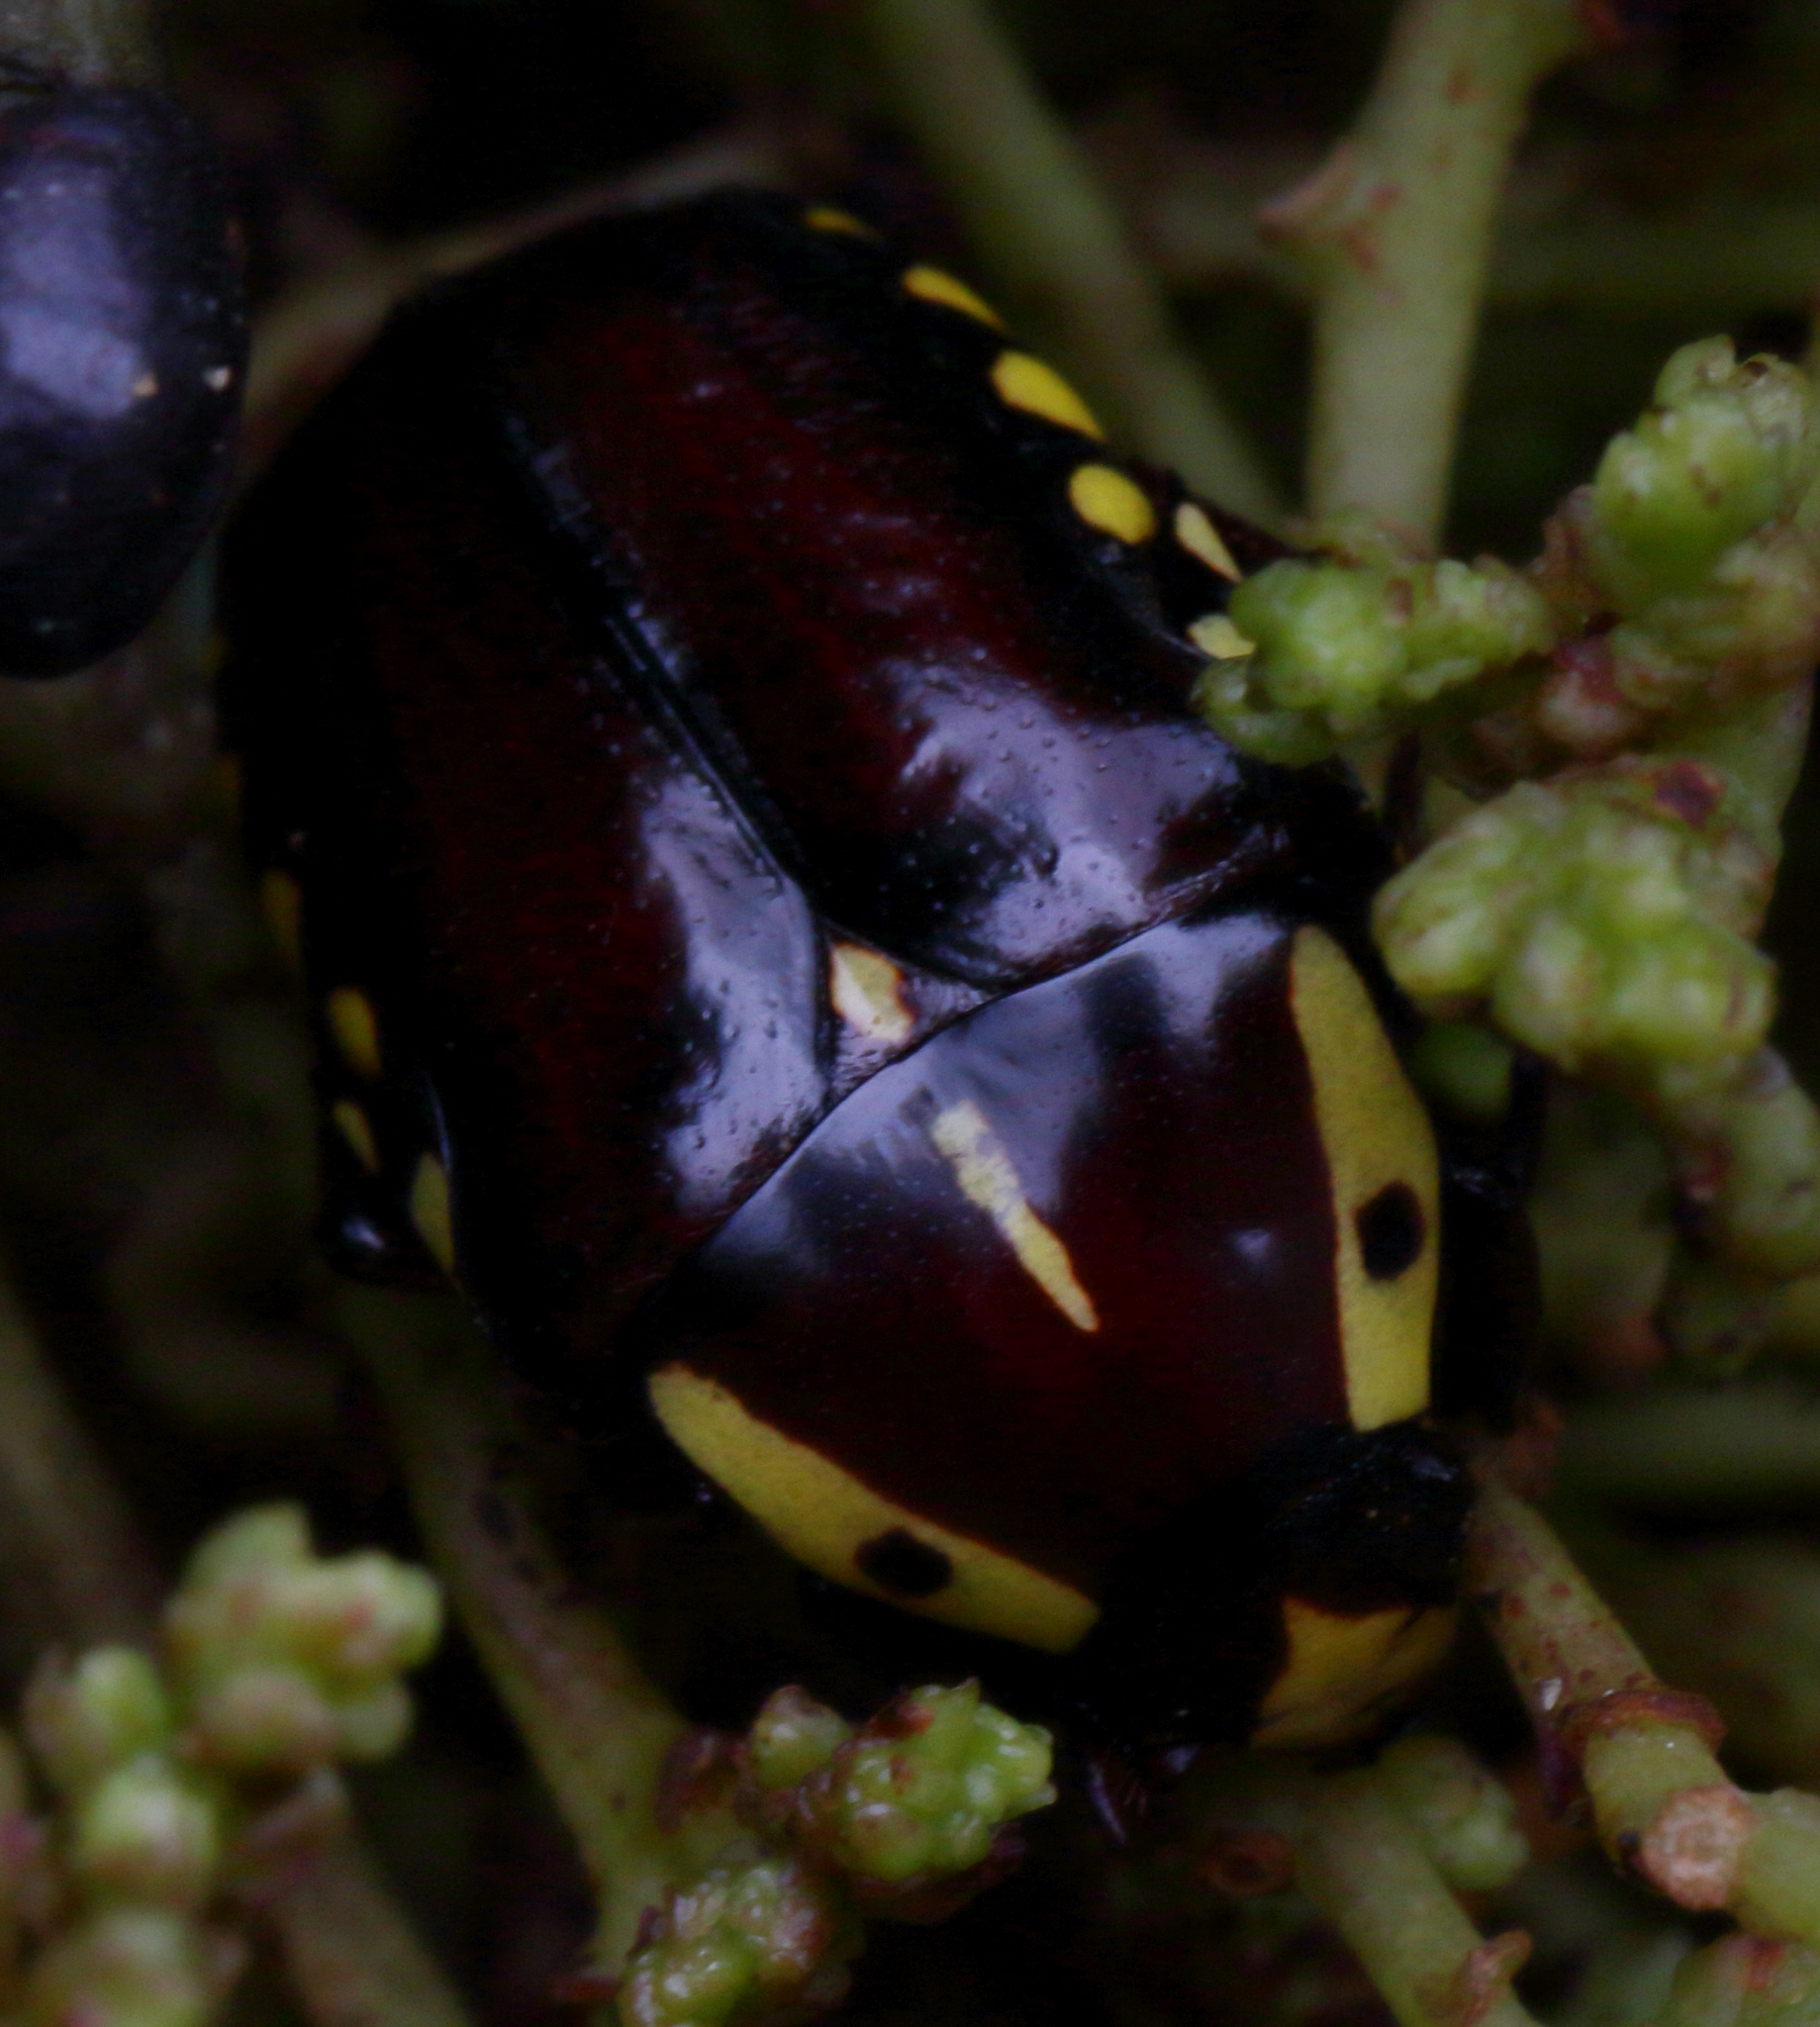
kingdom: Animalia
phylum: Arthropoda
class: Insecta
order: Coleoptera
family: Scarabaeidae
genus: Campsiura
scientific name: Campsiura cognata
